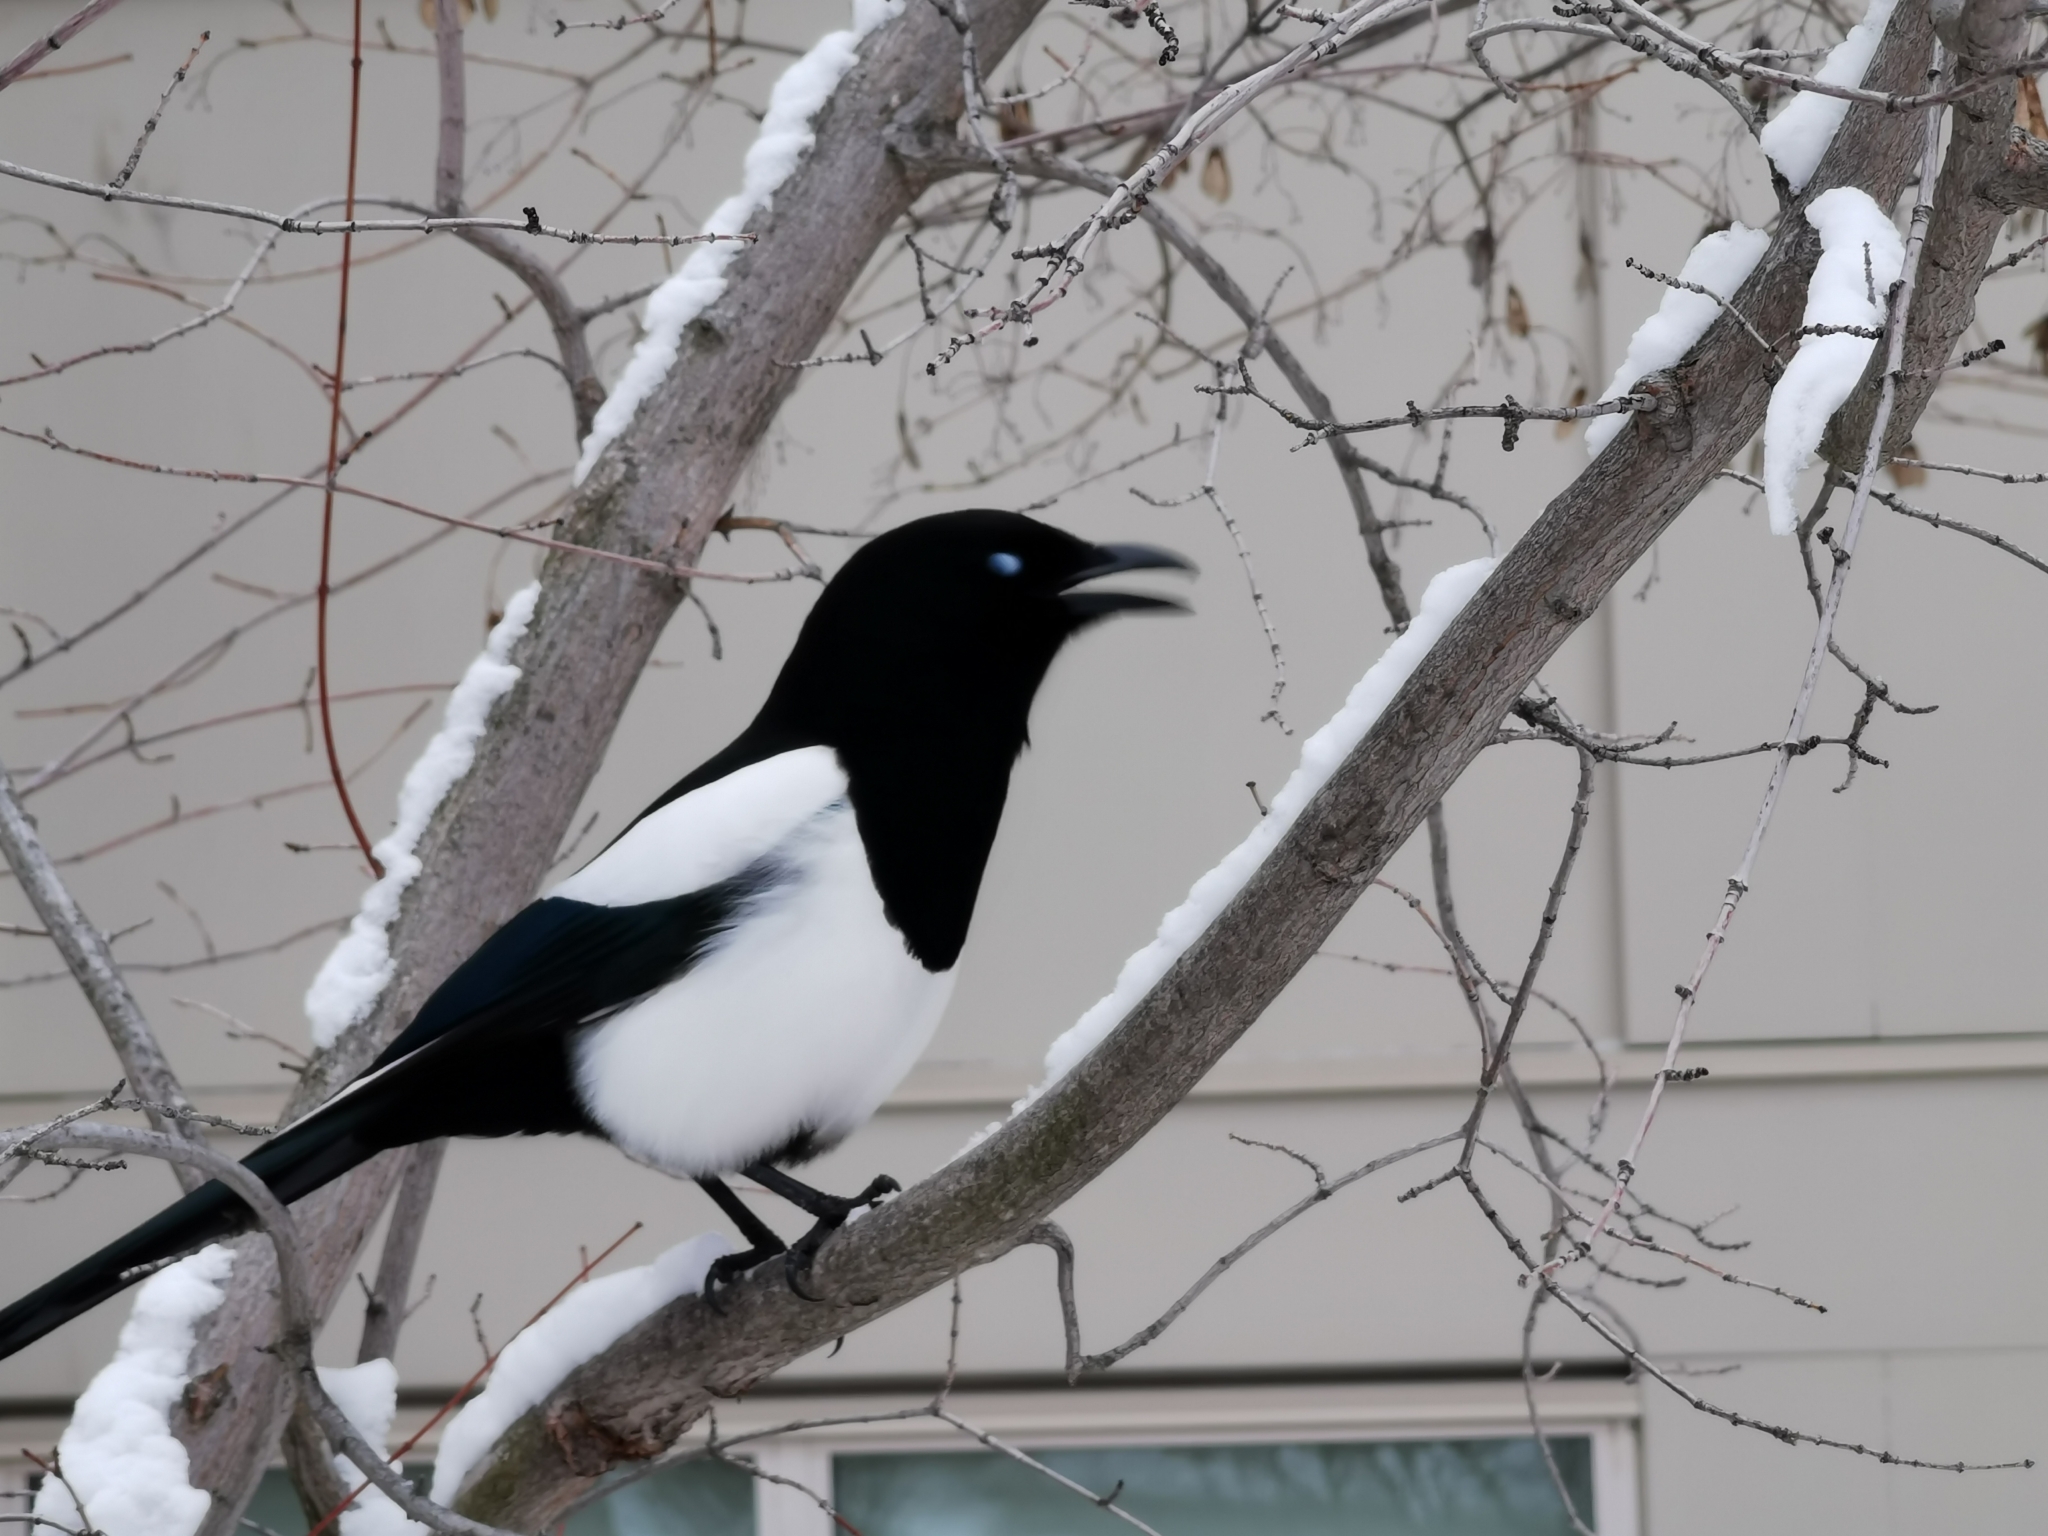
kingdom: Animalia
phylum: Chordata
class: Aves
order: Passeriformes
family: Corvidae
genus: Pica
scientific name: Pica hudsonia
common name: Black-billed magpie
